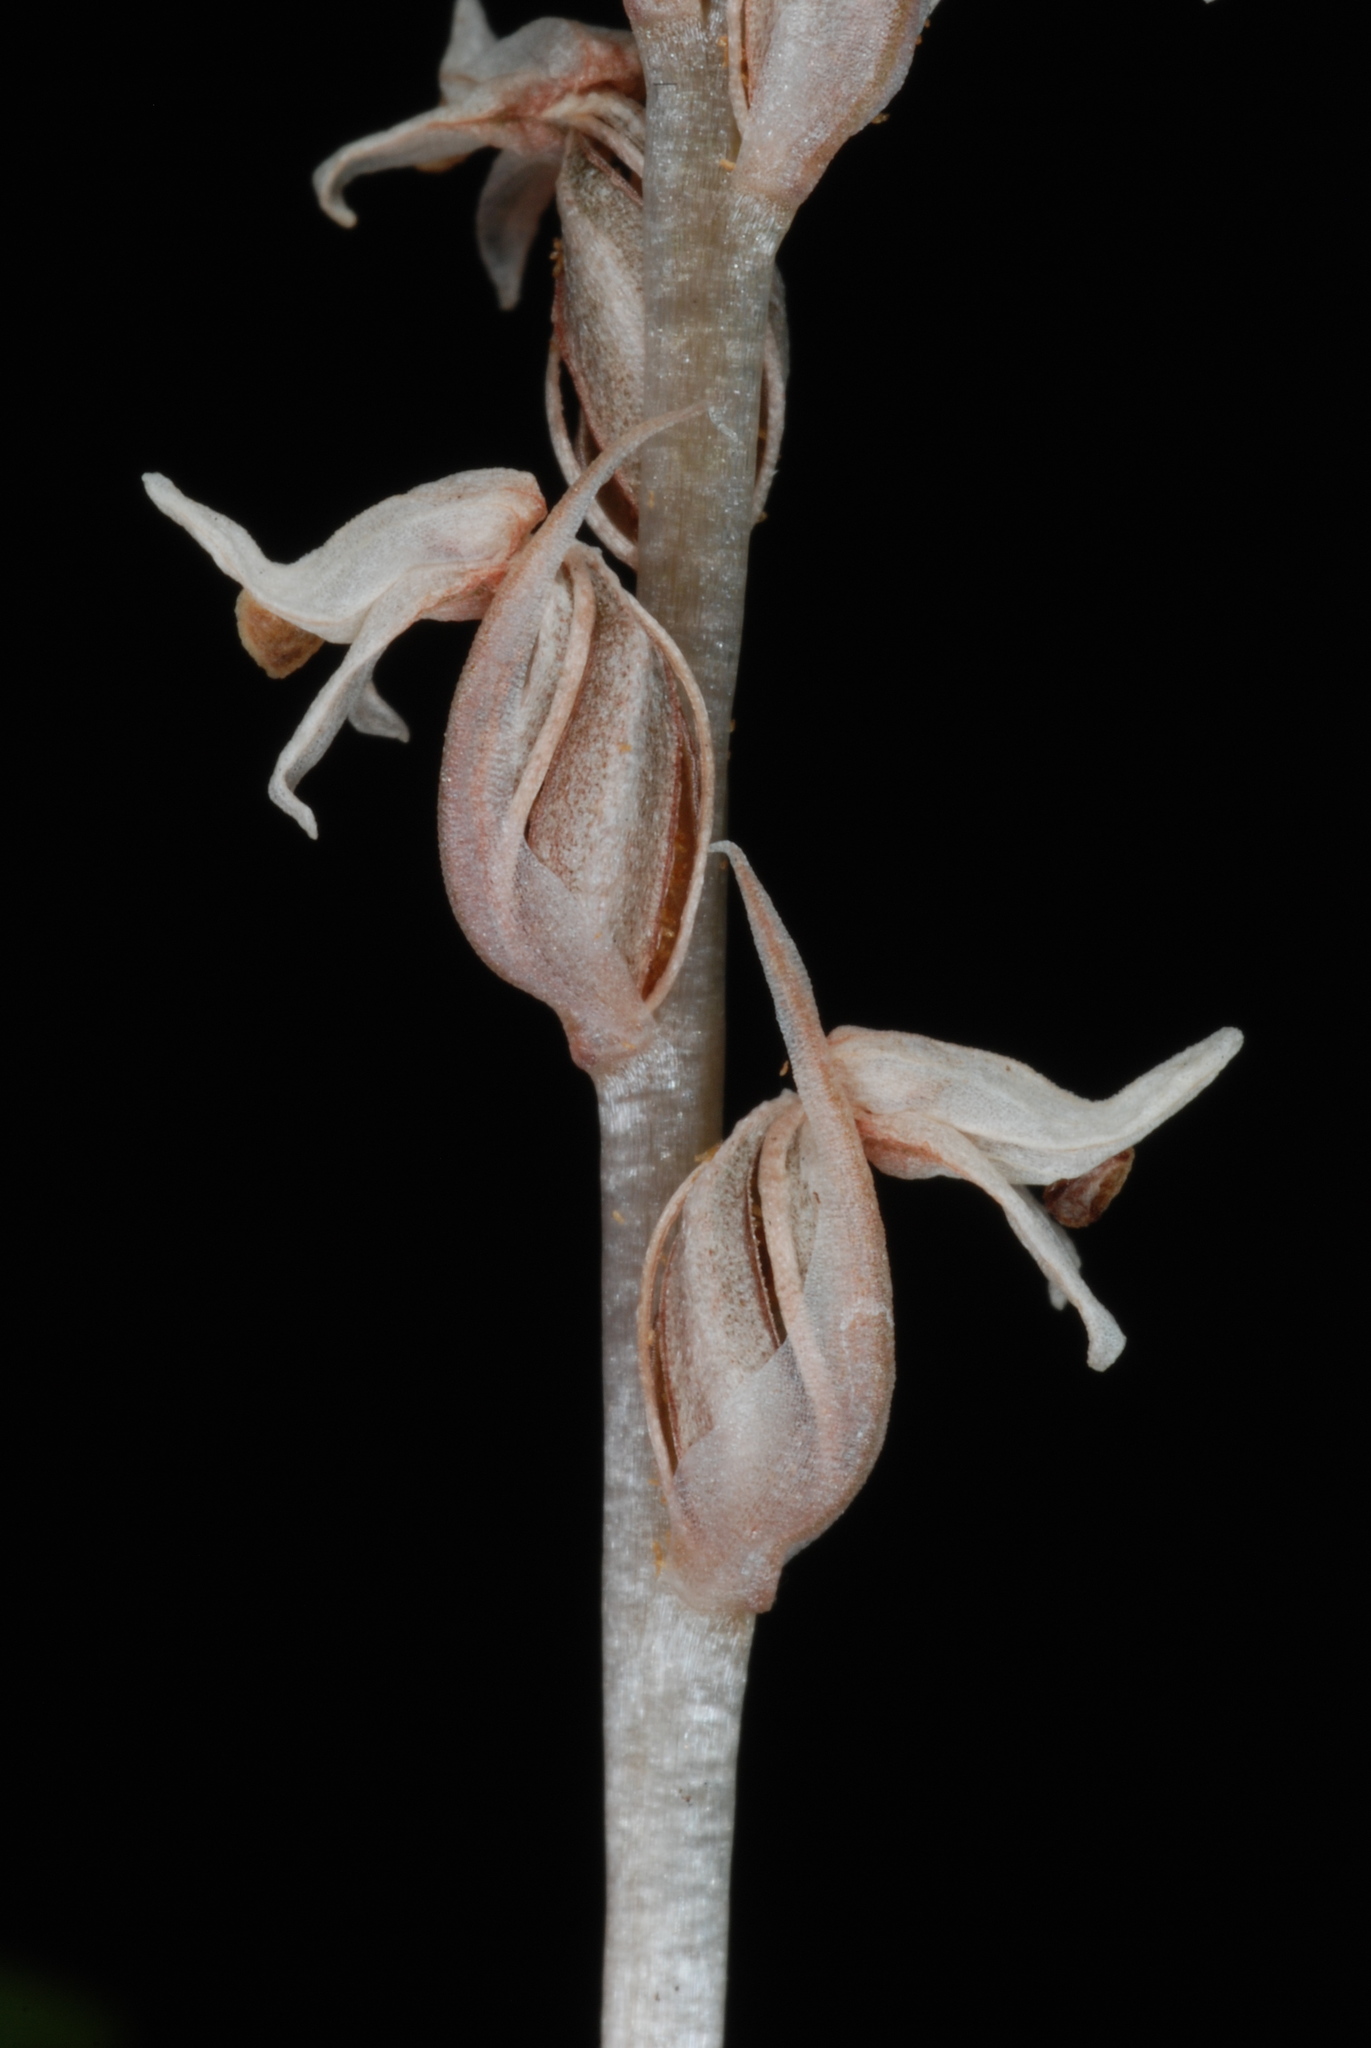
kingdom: Plantae
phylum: Tracheophyta
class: Liliopsida
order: Asparagales
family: Orchidaceae
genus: Zeuxine
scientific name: Zeuxine strateumatica
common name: Soldier's orchid
